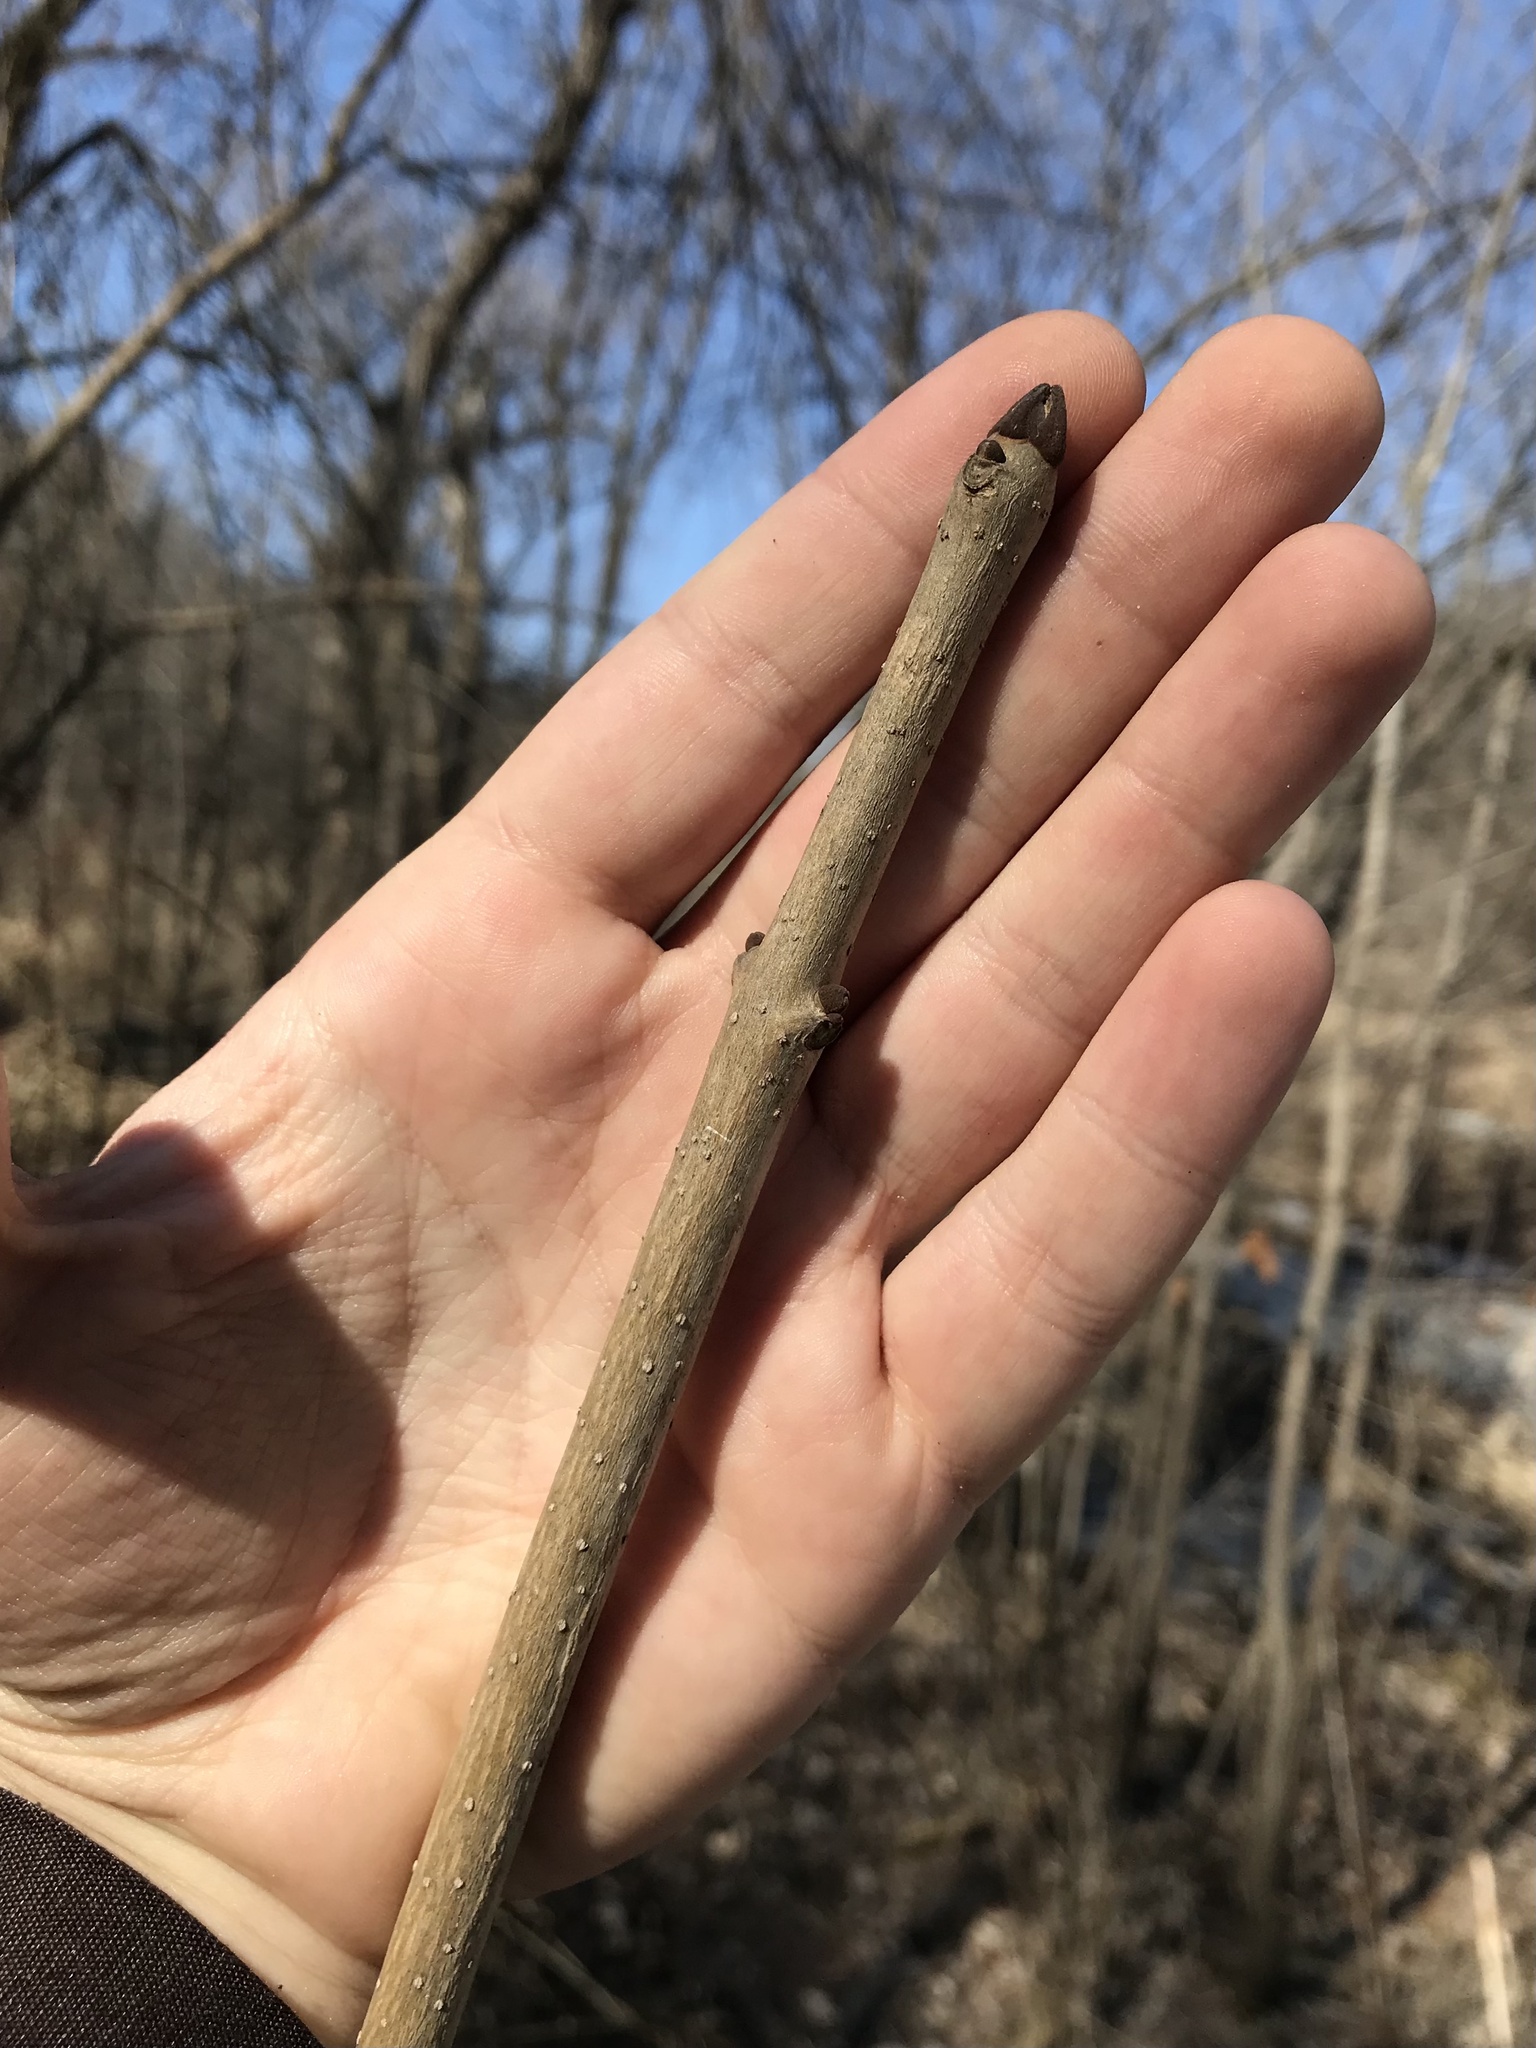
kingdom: Plantae
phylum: Tracheophyta
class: Magnoliopsida
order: Lamiales
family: Oleaceae
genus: Fraxinus
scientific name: Fraxinus nigra
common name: Black ash
